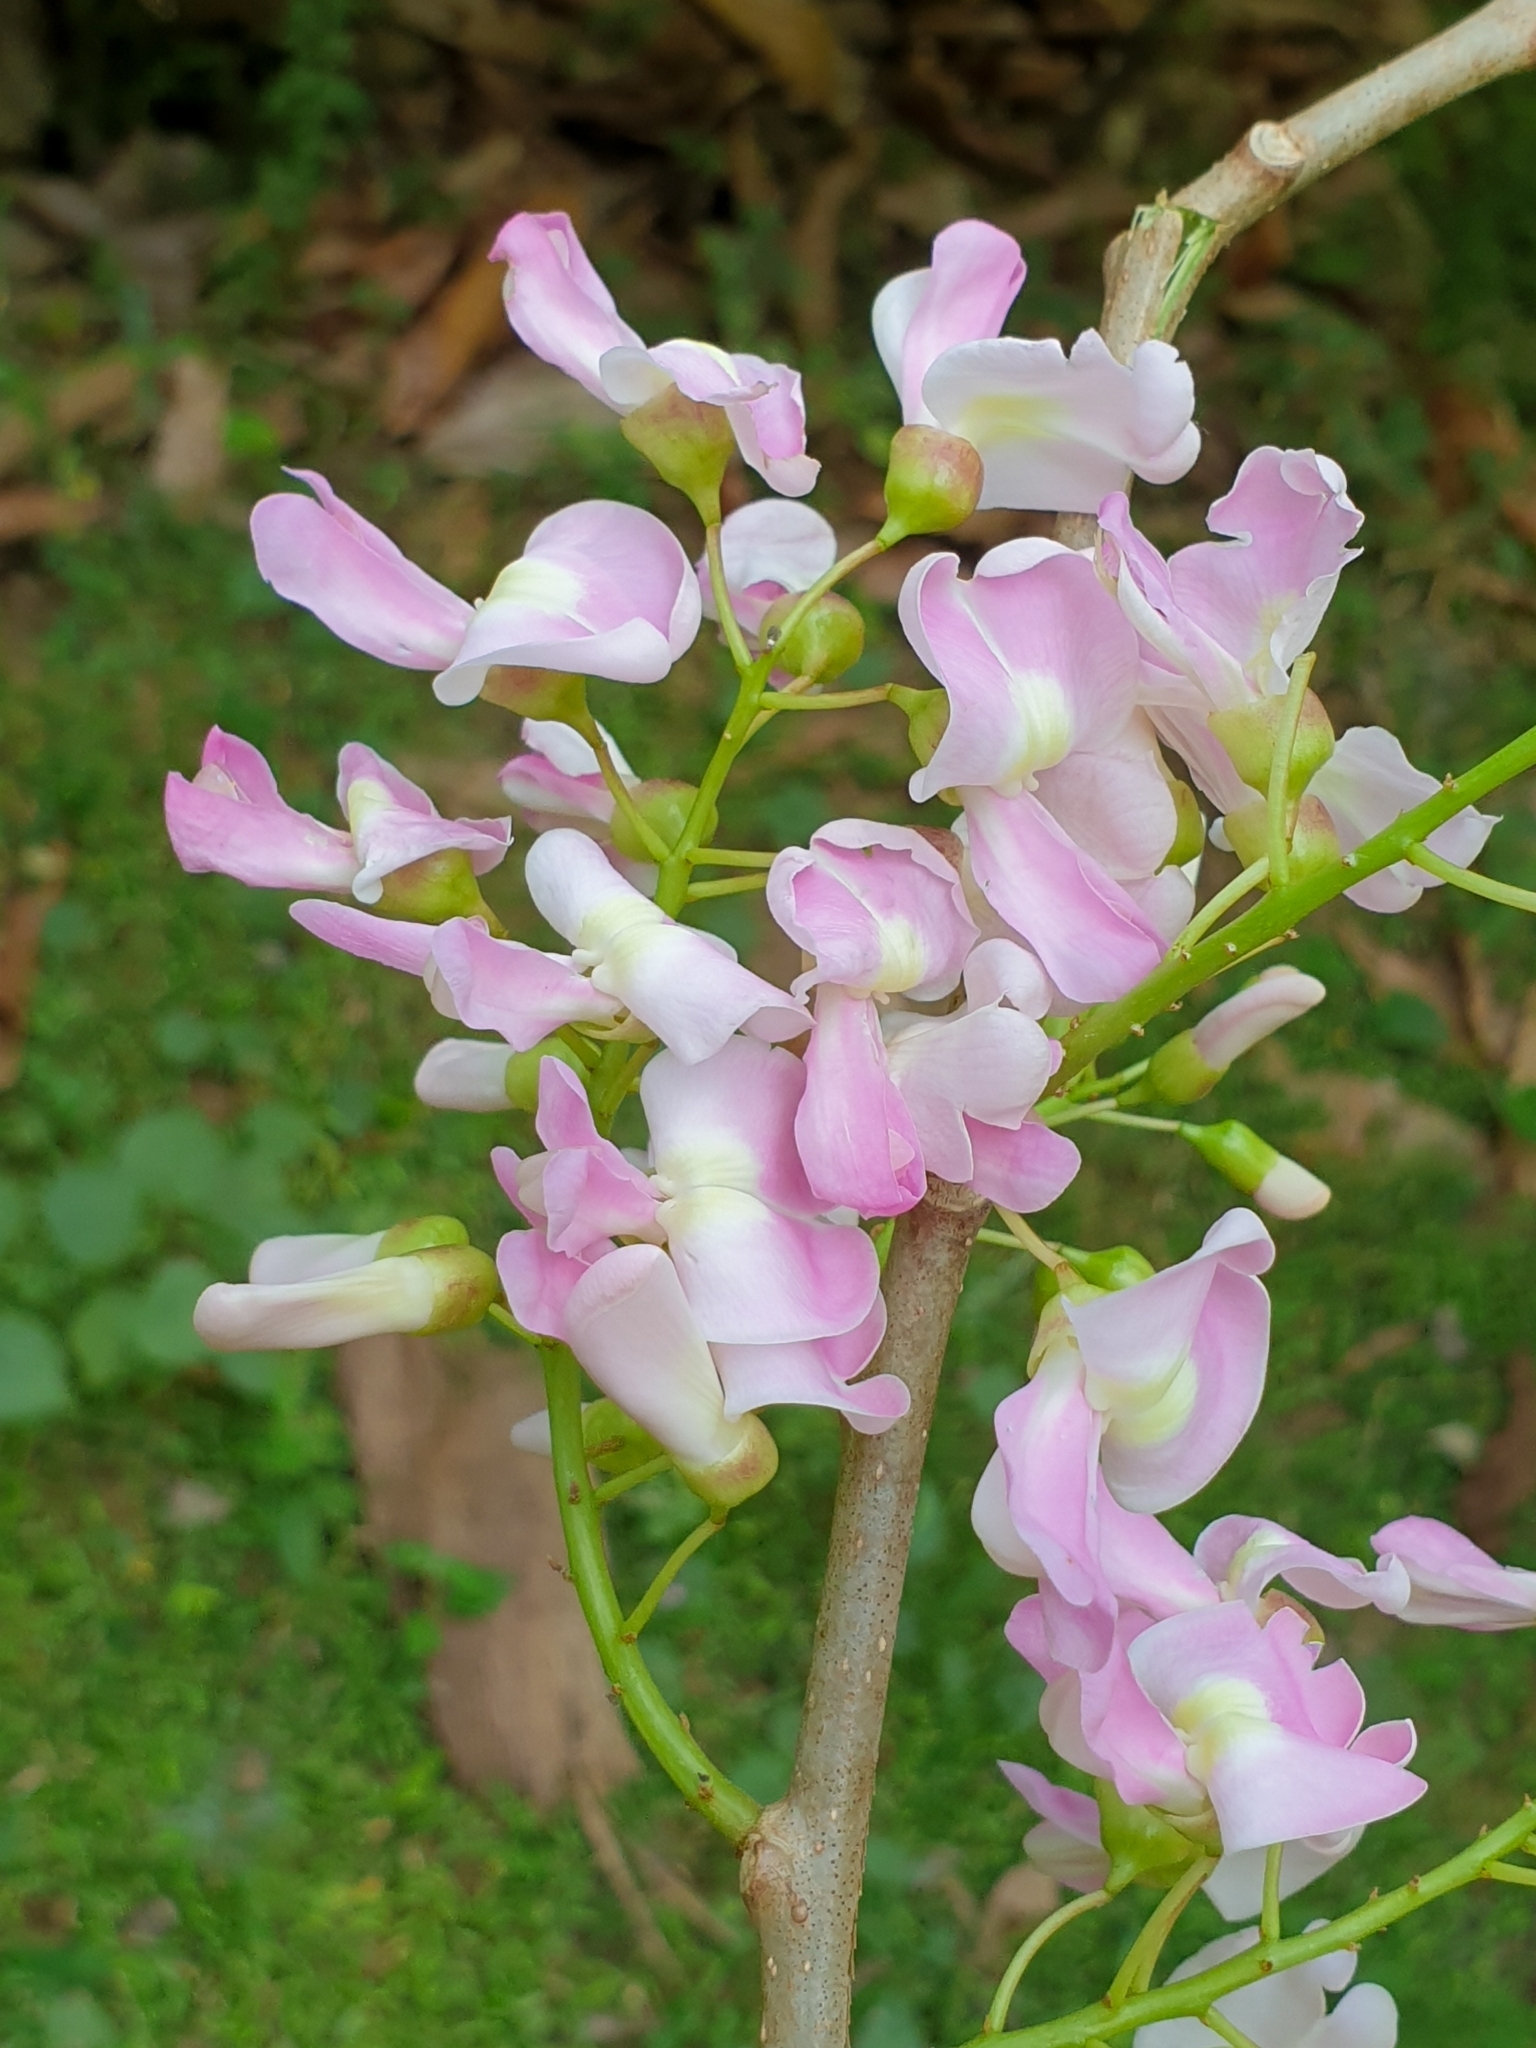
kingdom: Plantae
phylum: Tracheophyta
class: Magnoliopsida
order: Fabales
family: Fabaceae
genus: Gliricidia
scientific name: Gliricidia sepium
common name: Quickstick
